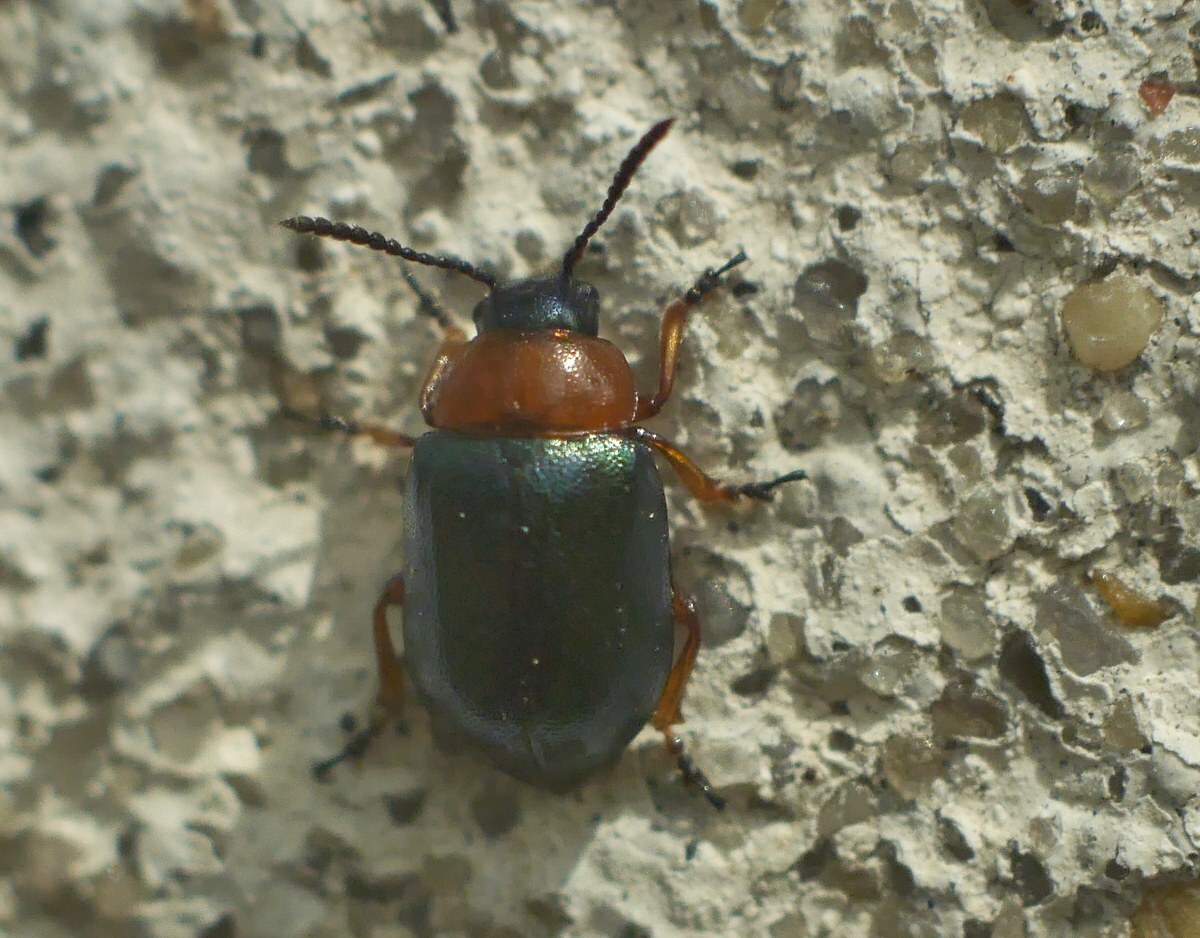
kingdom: Animalia
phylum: Arthropoda
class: Insecta
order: Coleoptera
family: Chrysomelidae
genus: Gastrophysa
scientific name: Gastrophysa polygoni
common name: Knotweed leaf beetle
